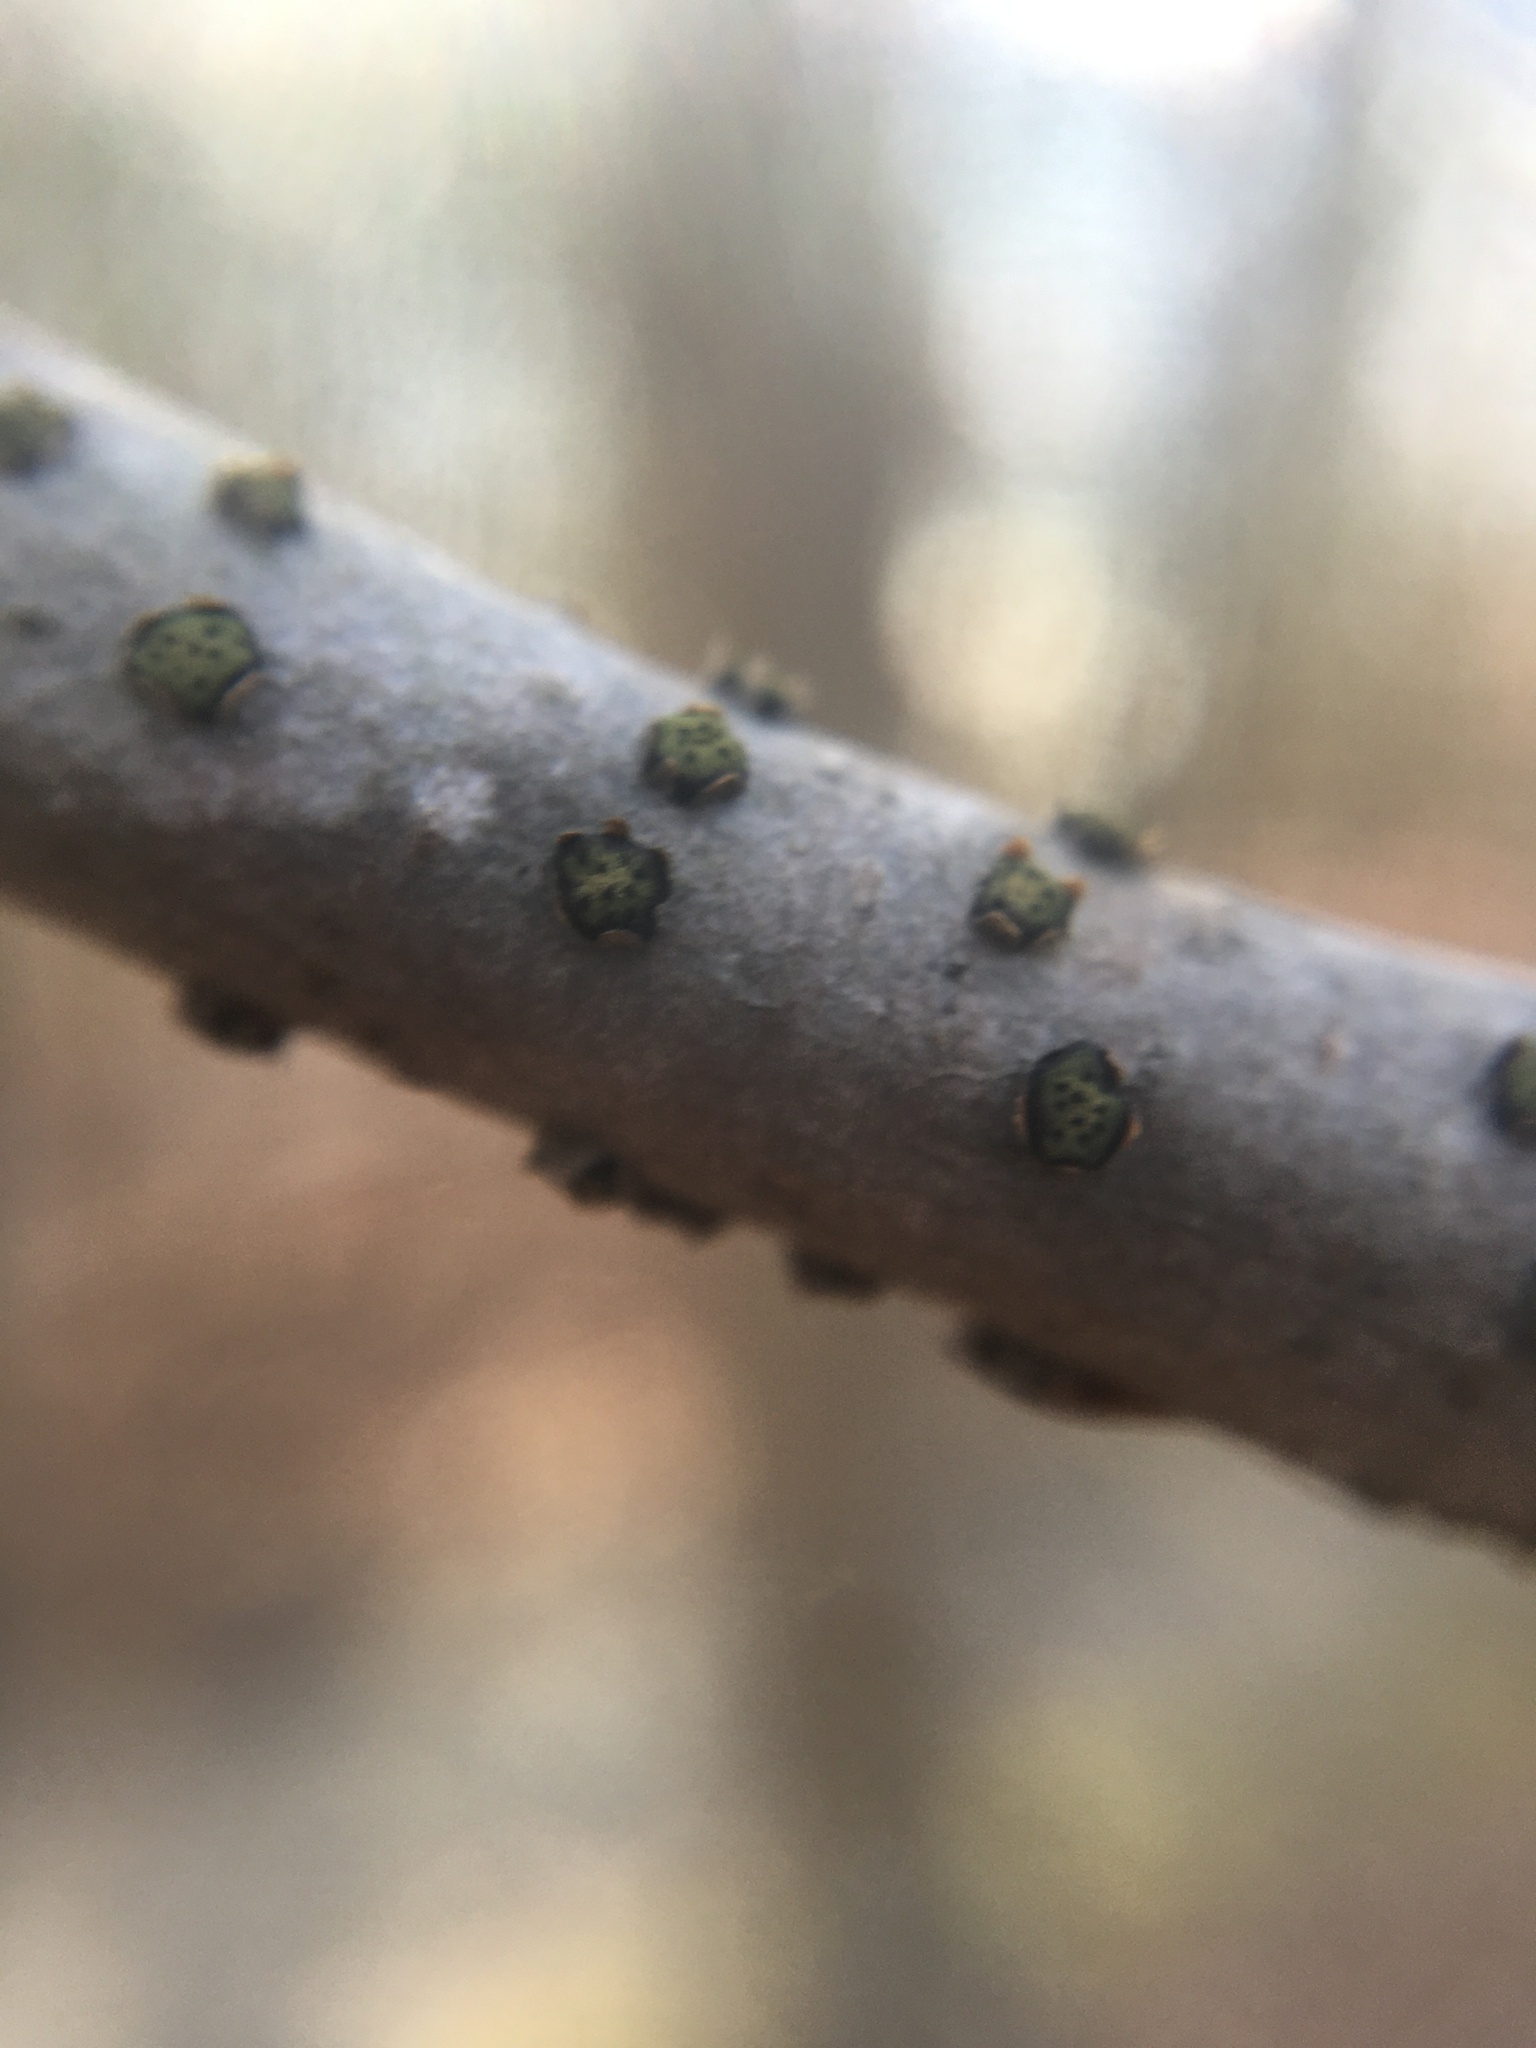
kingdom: Fungi
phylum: Ascomycota
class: Sordariomycetes
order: Xylariales
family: Diatrypaceae
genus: Diatrype
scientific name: Diatrype virescens
